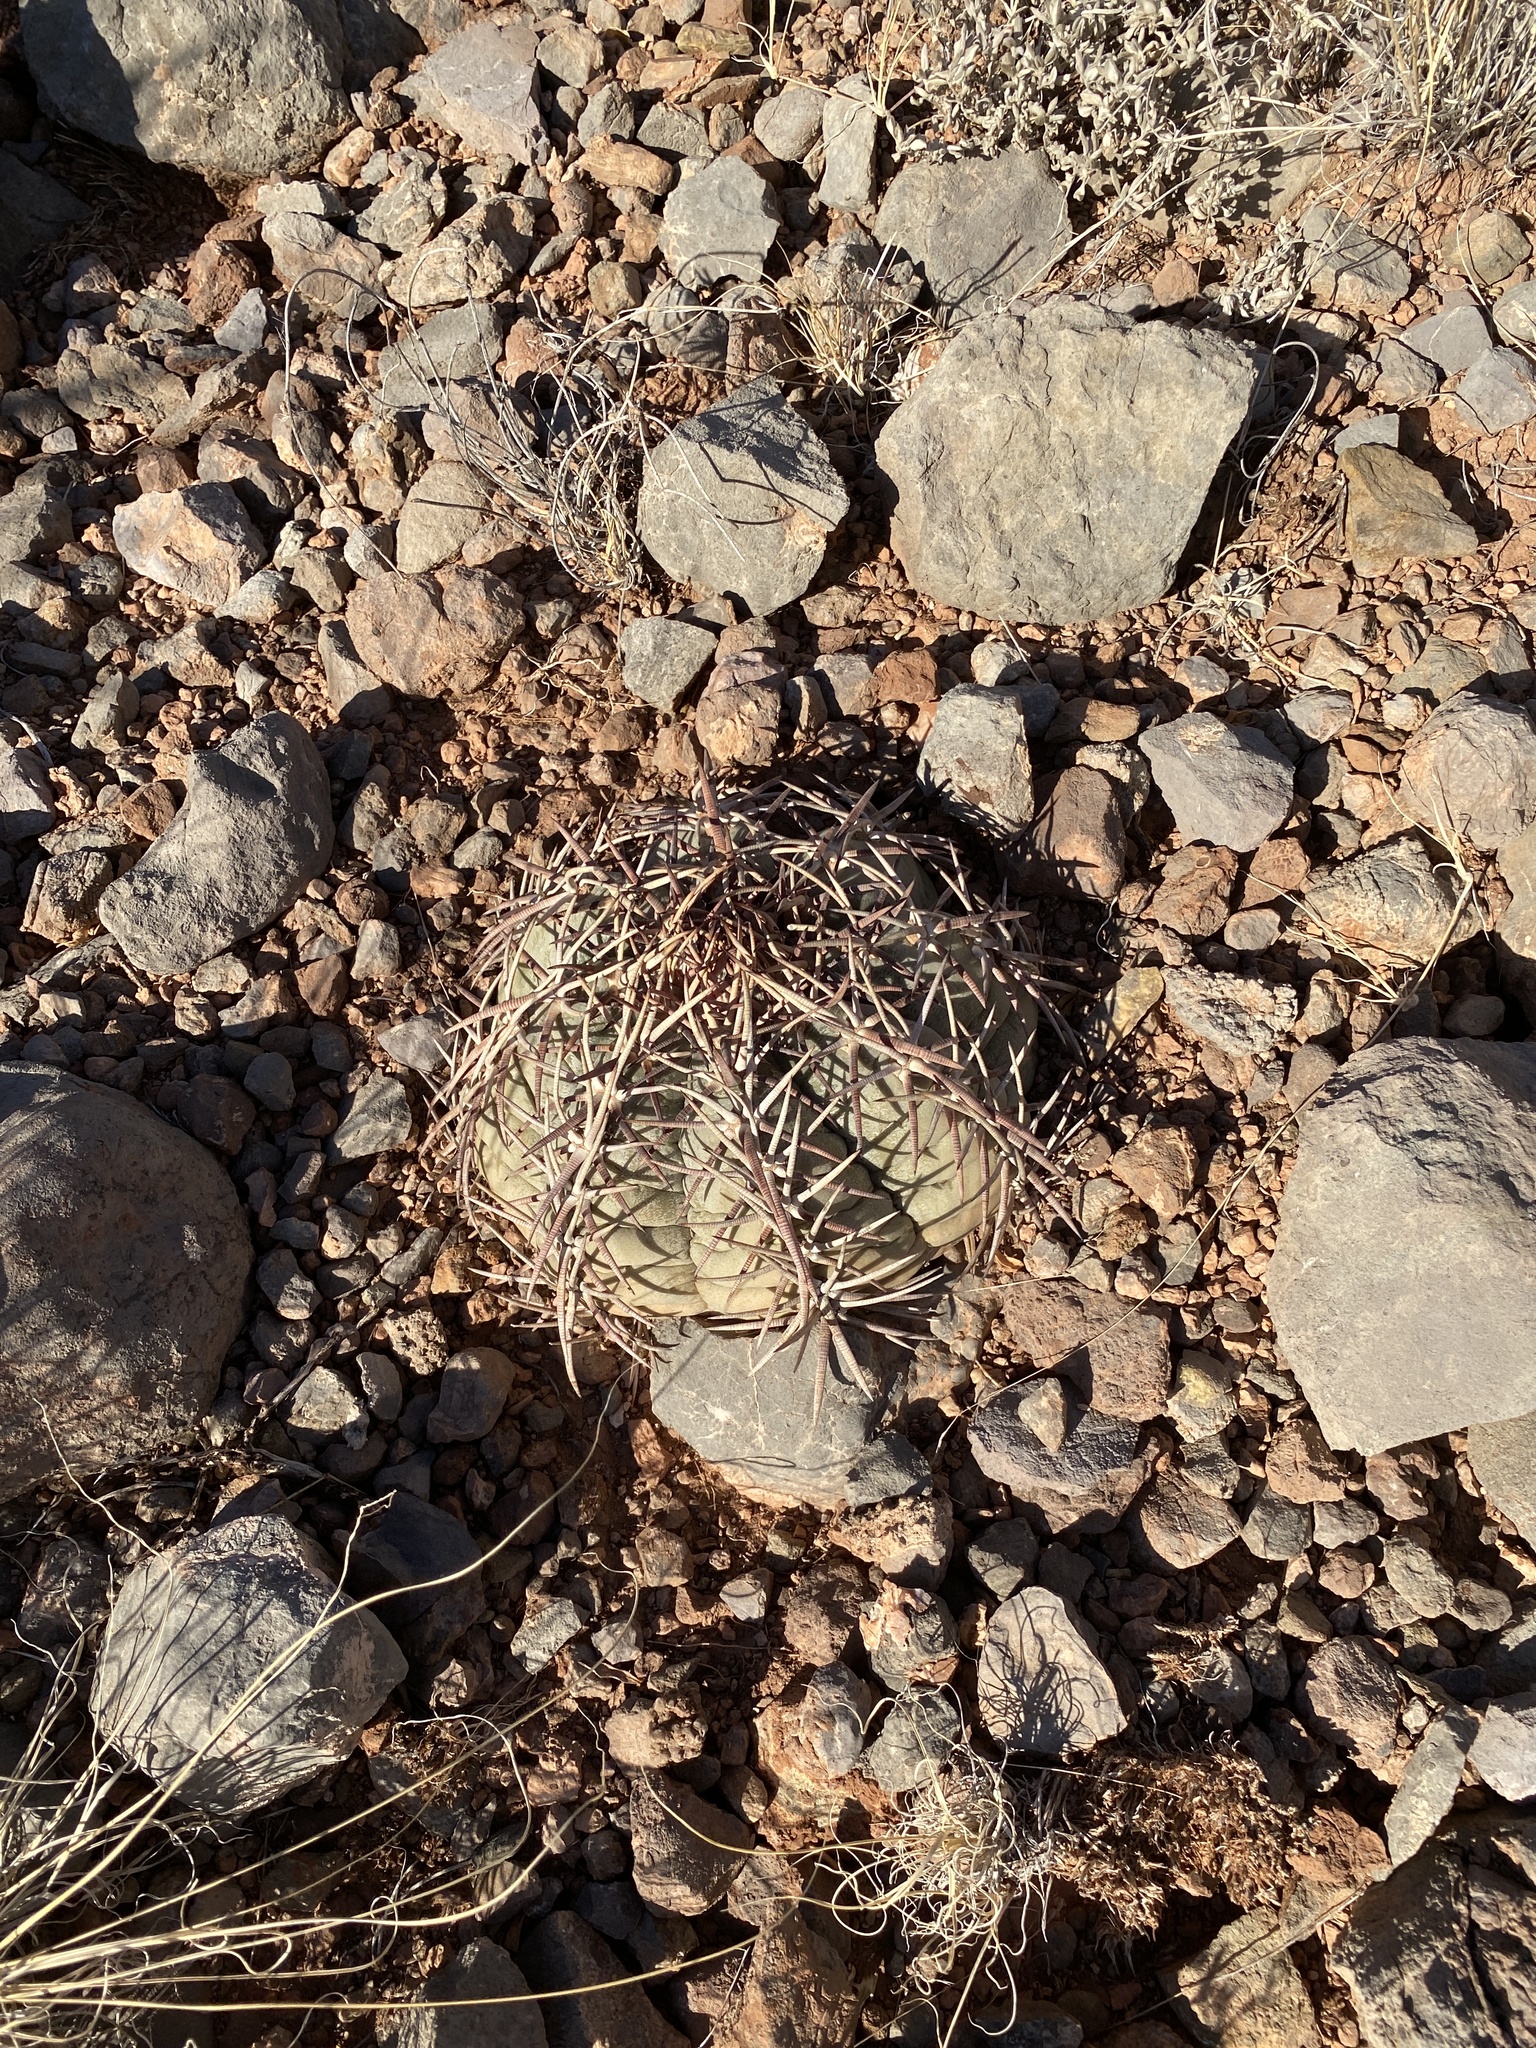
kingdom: Plantae
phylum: Tracheophyta
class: Magnoliopsida
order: Caryophyllales
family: Cactaceae
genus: Echinocactus
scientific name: Echinocactus horizonthalonius
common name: Devilshead
